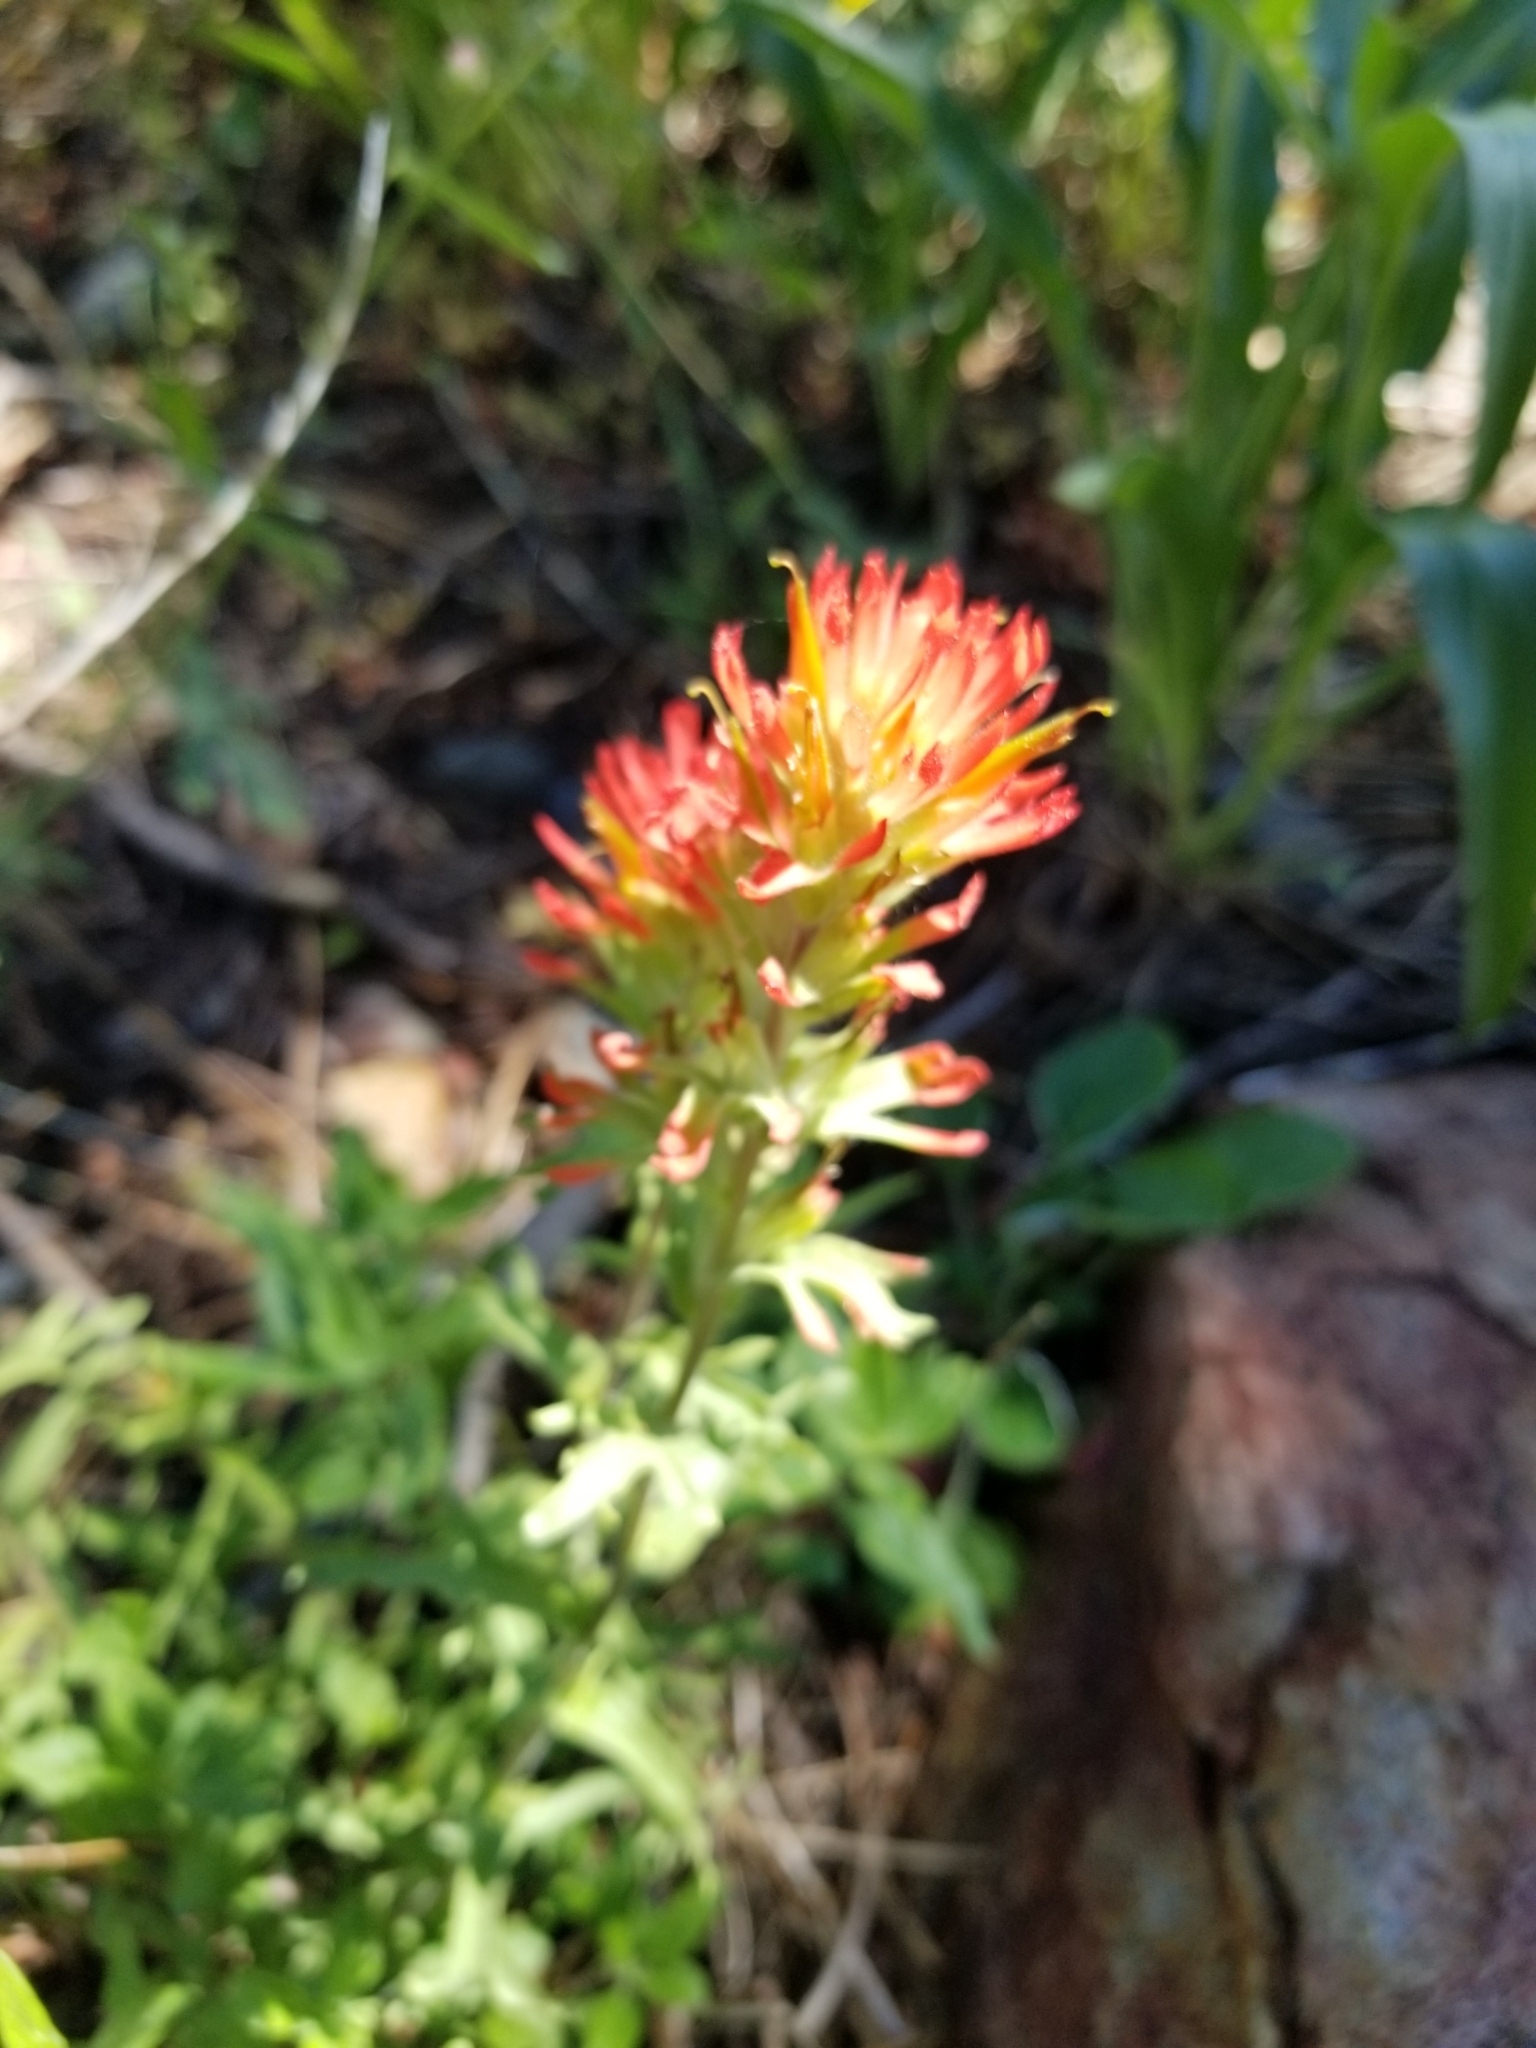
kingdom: Plantae
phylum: Tracheophyta
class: Magnoliopsida
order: Lamiales
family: Orobanchaceae
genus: Castilleja
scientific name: Castilleja applegatei
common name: Wavy-leaf paintbrush
